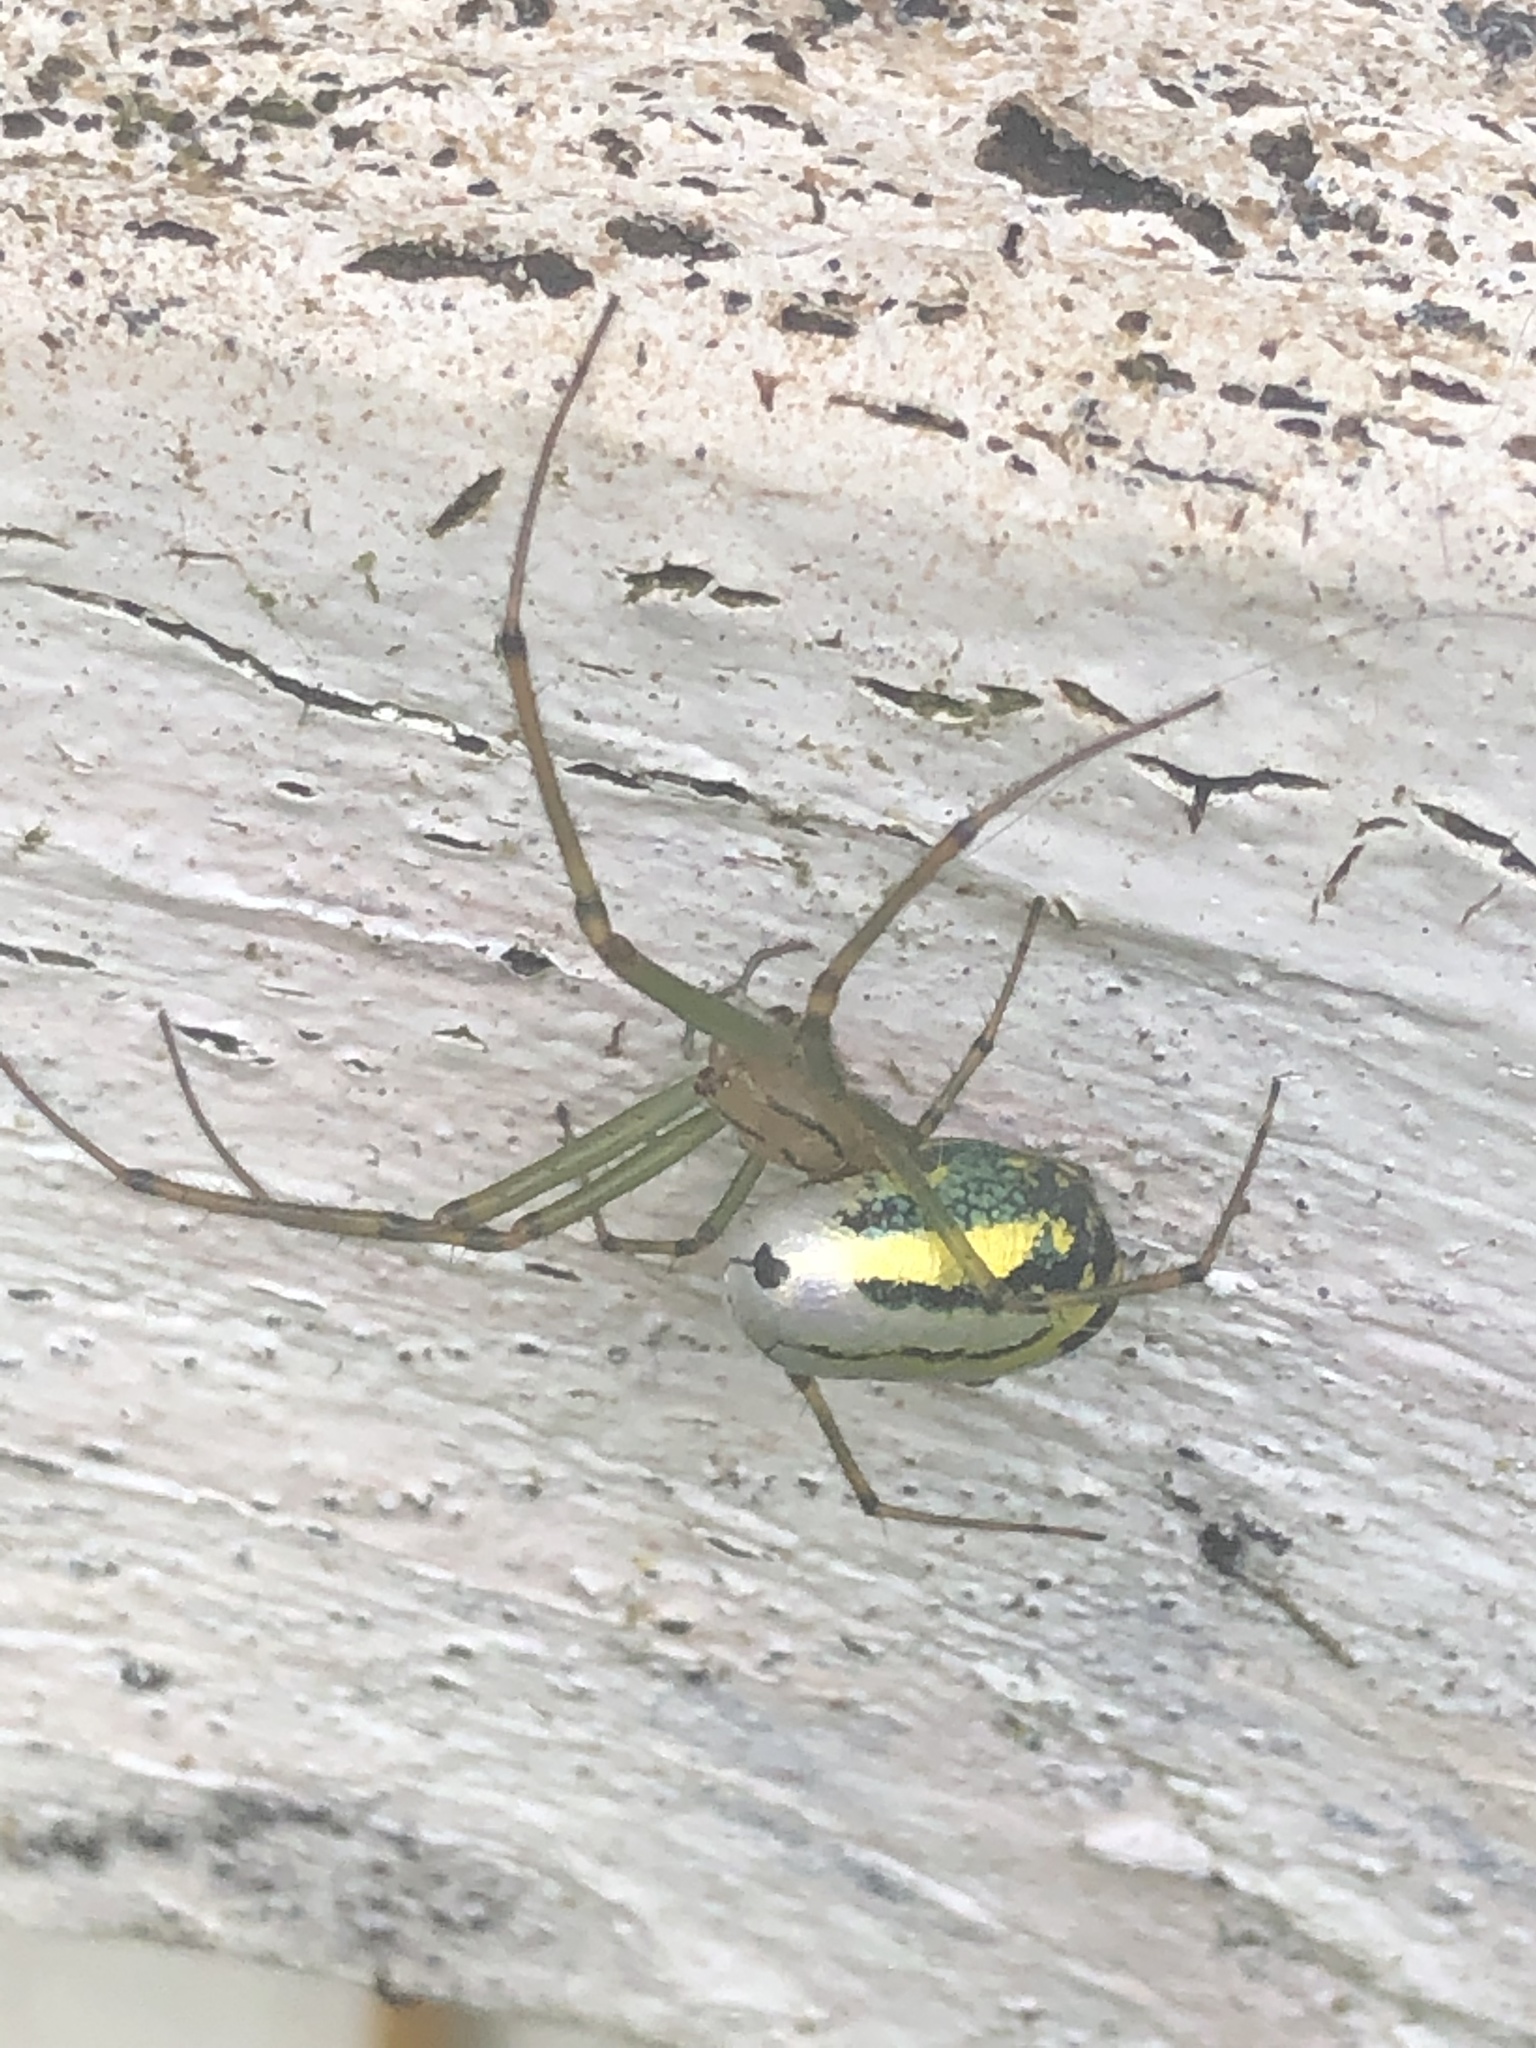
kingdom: Animalia
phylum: Arthropoda
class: Arachnida
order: Araneae
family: Tetragnathidae
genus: Leucauge
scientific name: Leucauge venusta
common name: Longjawed orb weavers
